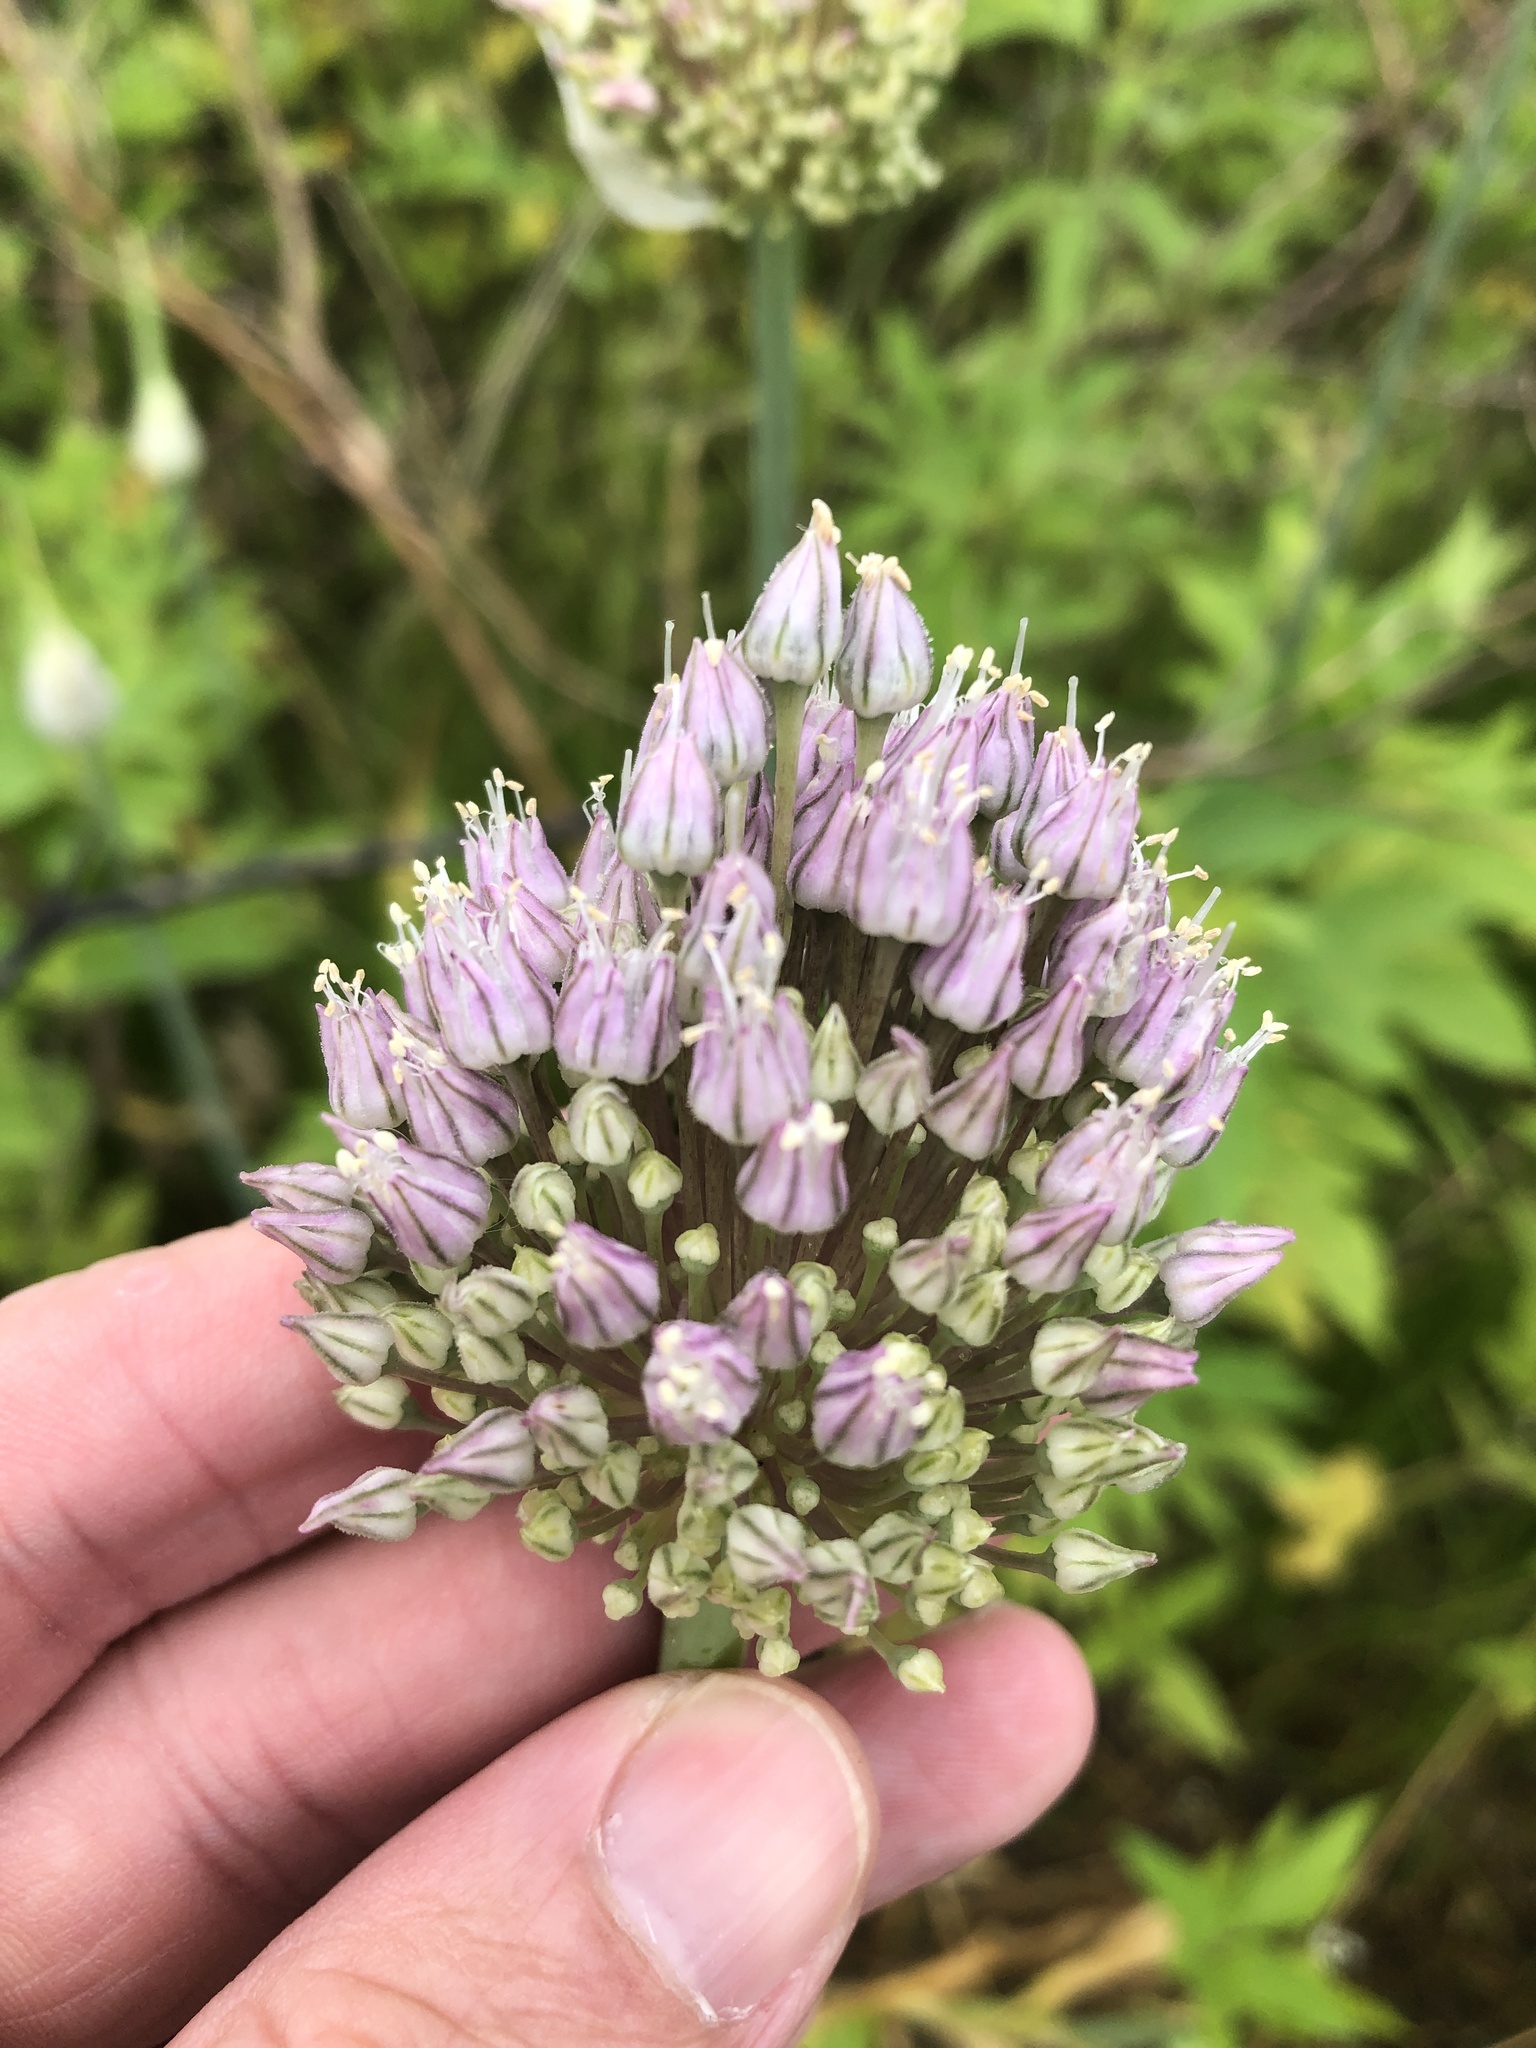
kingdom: Plantae
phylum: Tracheophyta
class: Liliopsida
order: Asparagales
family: Amaryllidaceae
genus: Allium
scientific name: Allium ampeloprasum
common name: Wild leek
